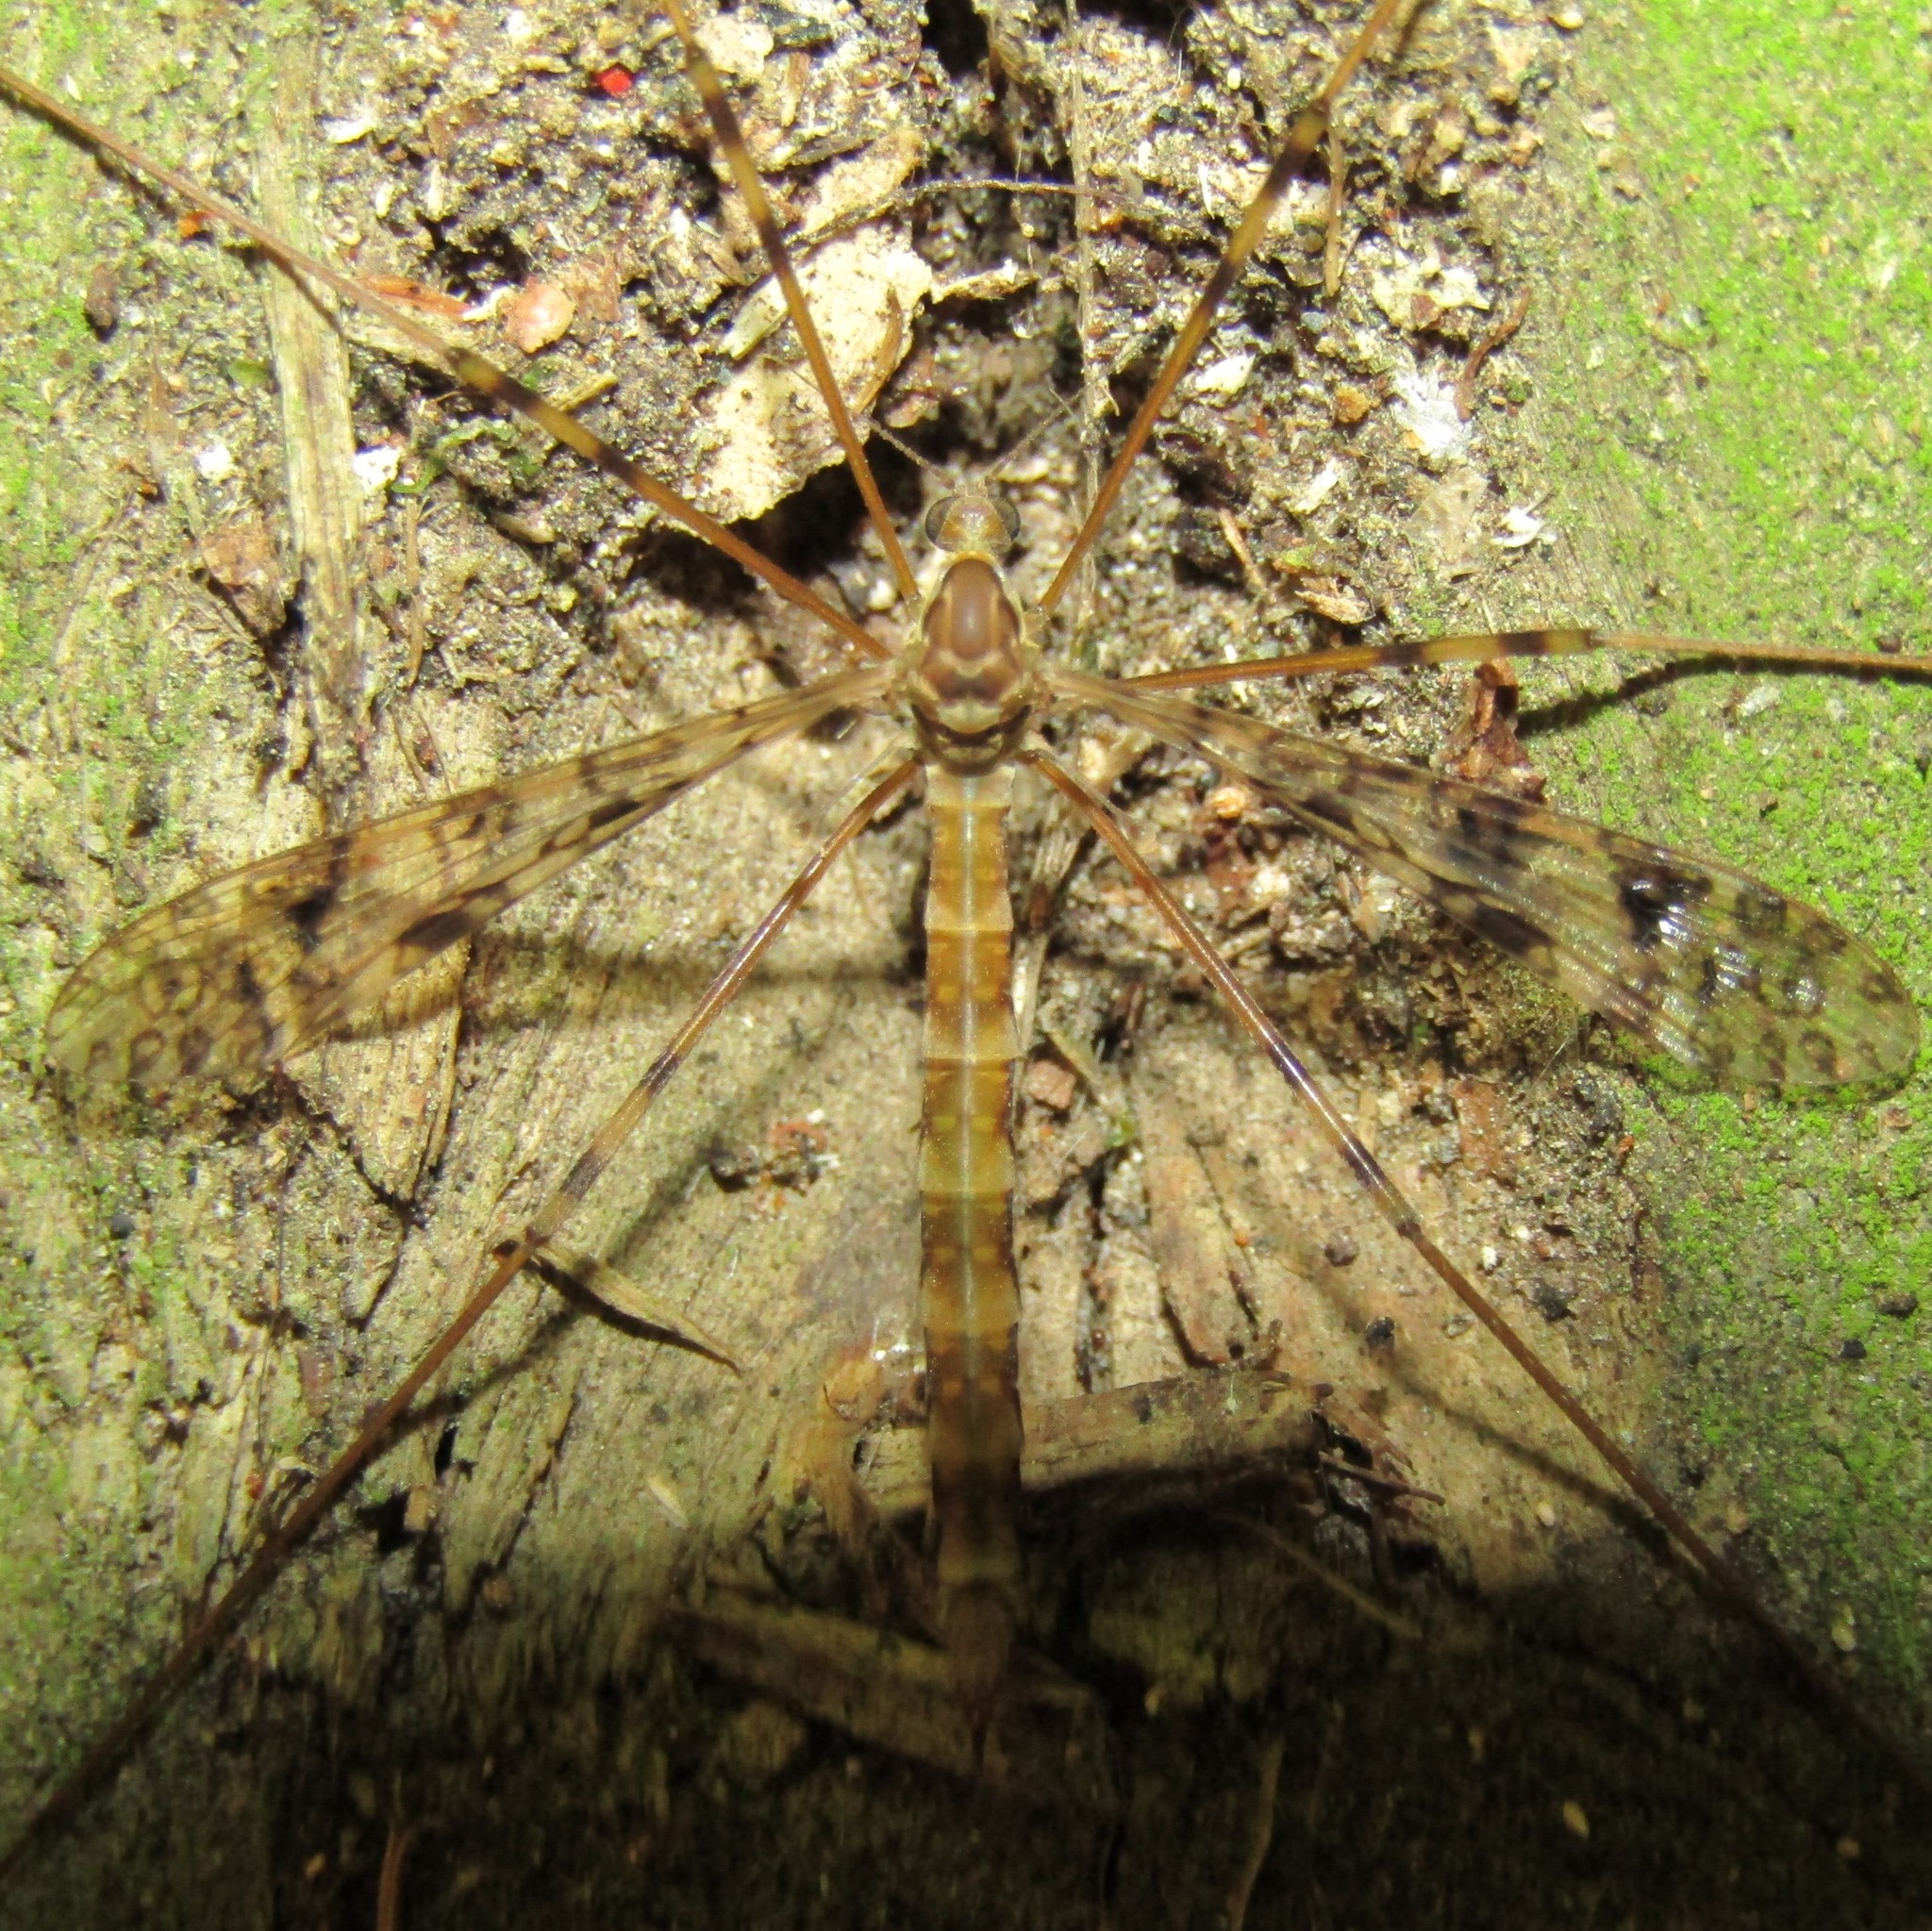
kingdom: Animalia
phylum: Arthropoda
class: Insecta
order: Diptera
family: Limoniidae
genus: Austrolimnophila
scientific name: Austrolimnophila argus
